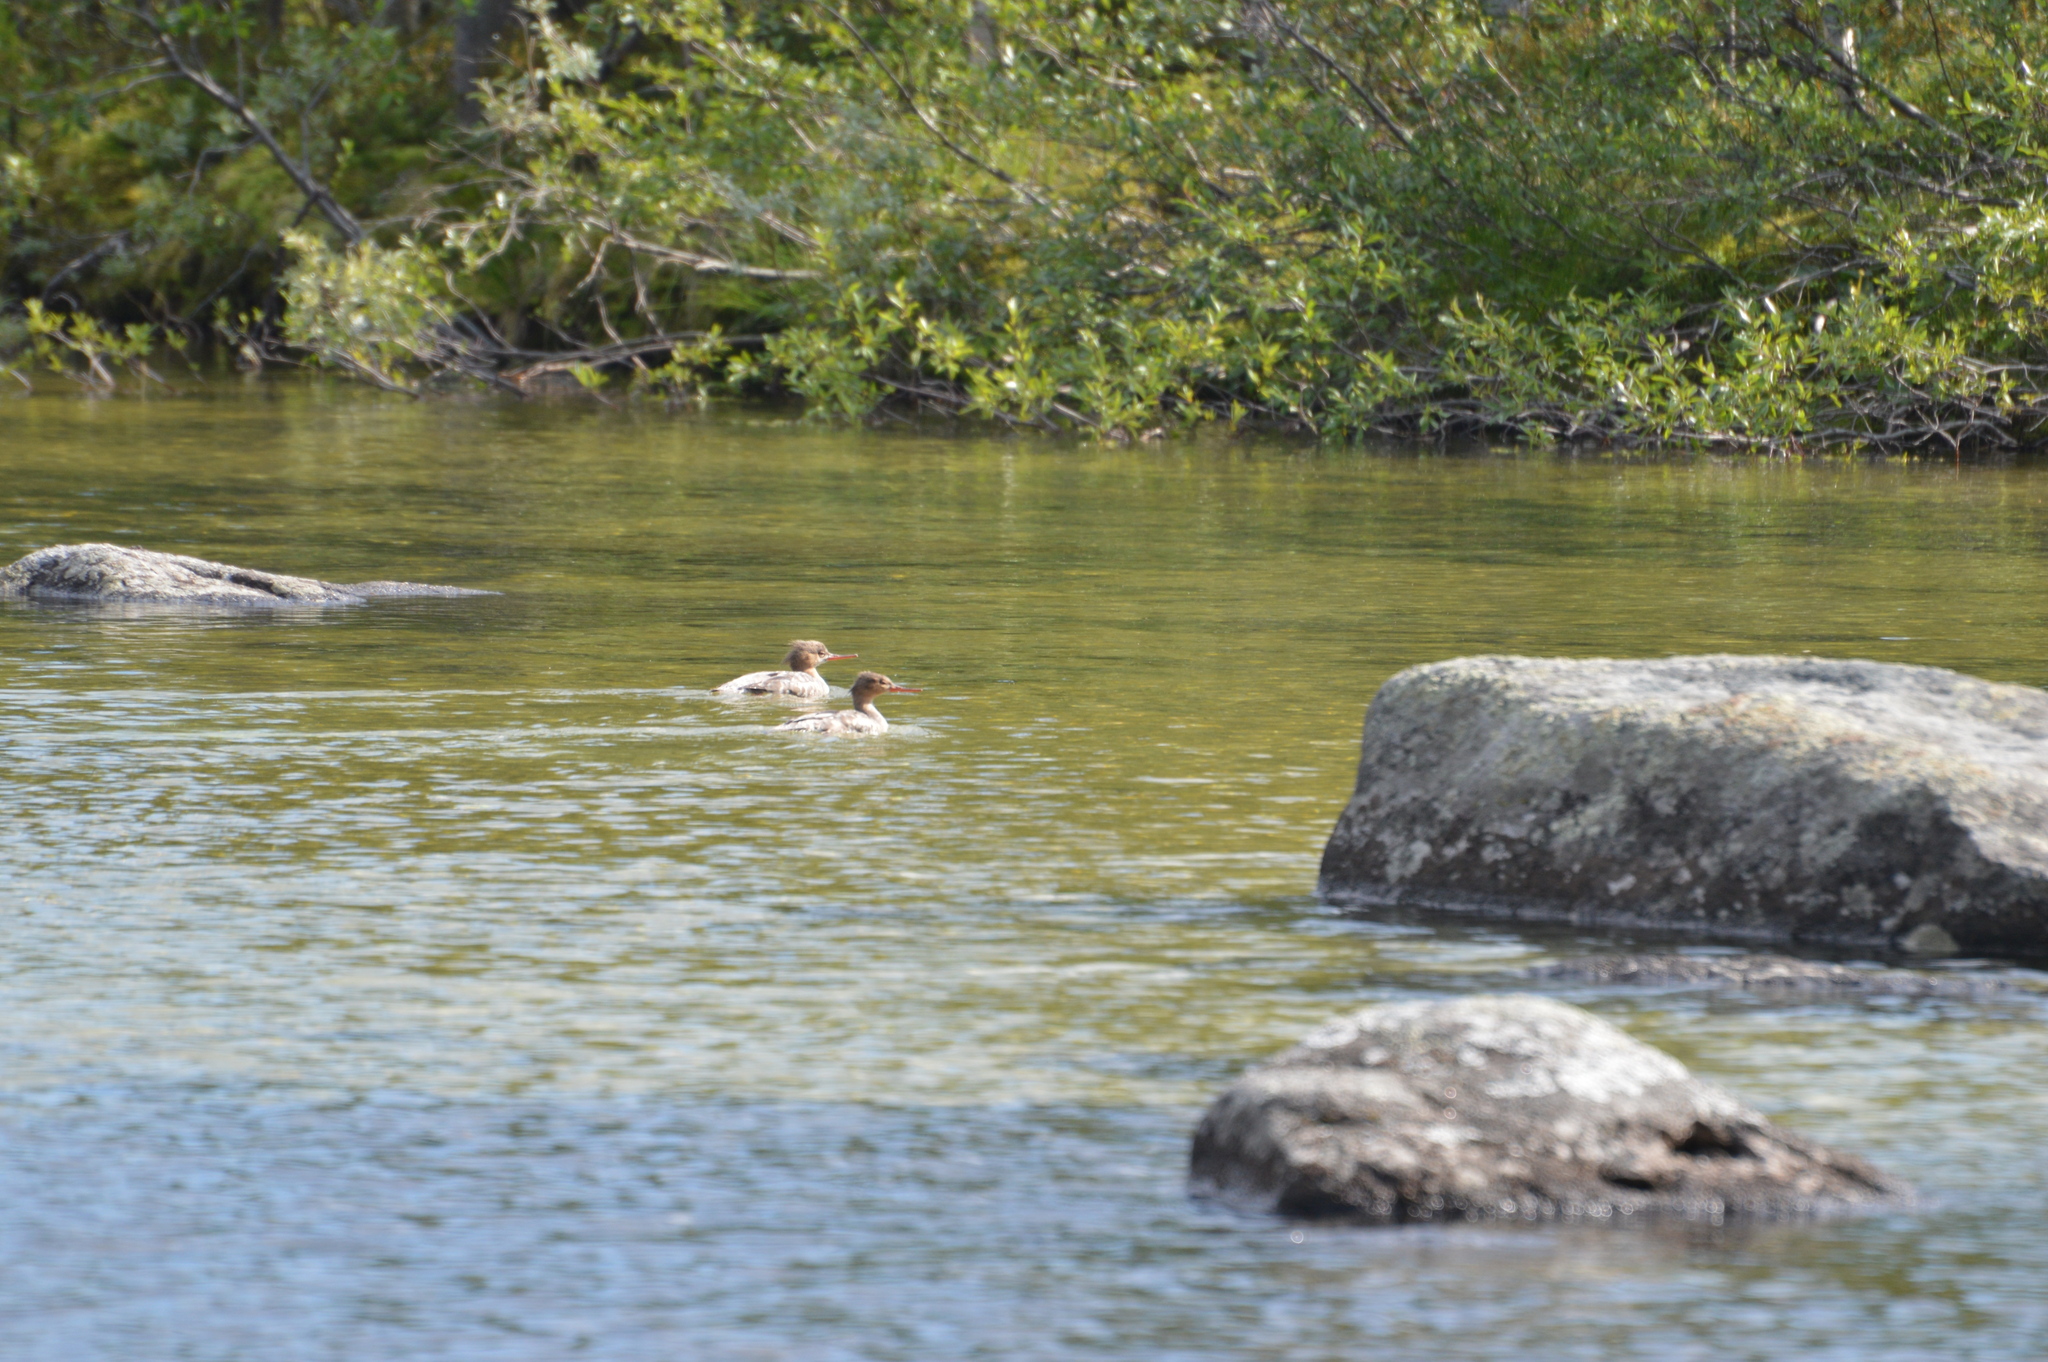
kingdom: Animalia
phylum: Chordata
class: Aves
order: Anseriformes
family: Anatidae
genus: Mergus
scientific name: Mergus serrator
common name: Red-breasted merganser
